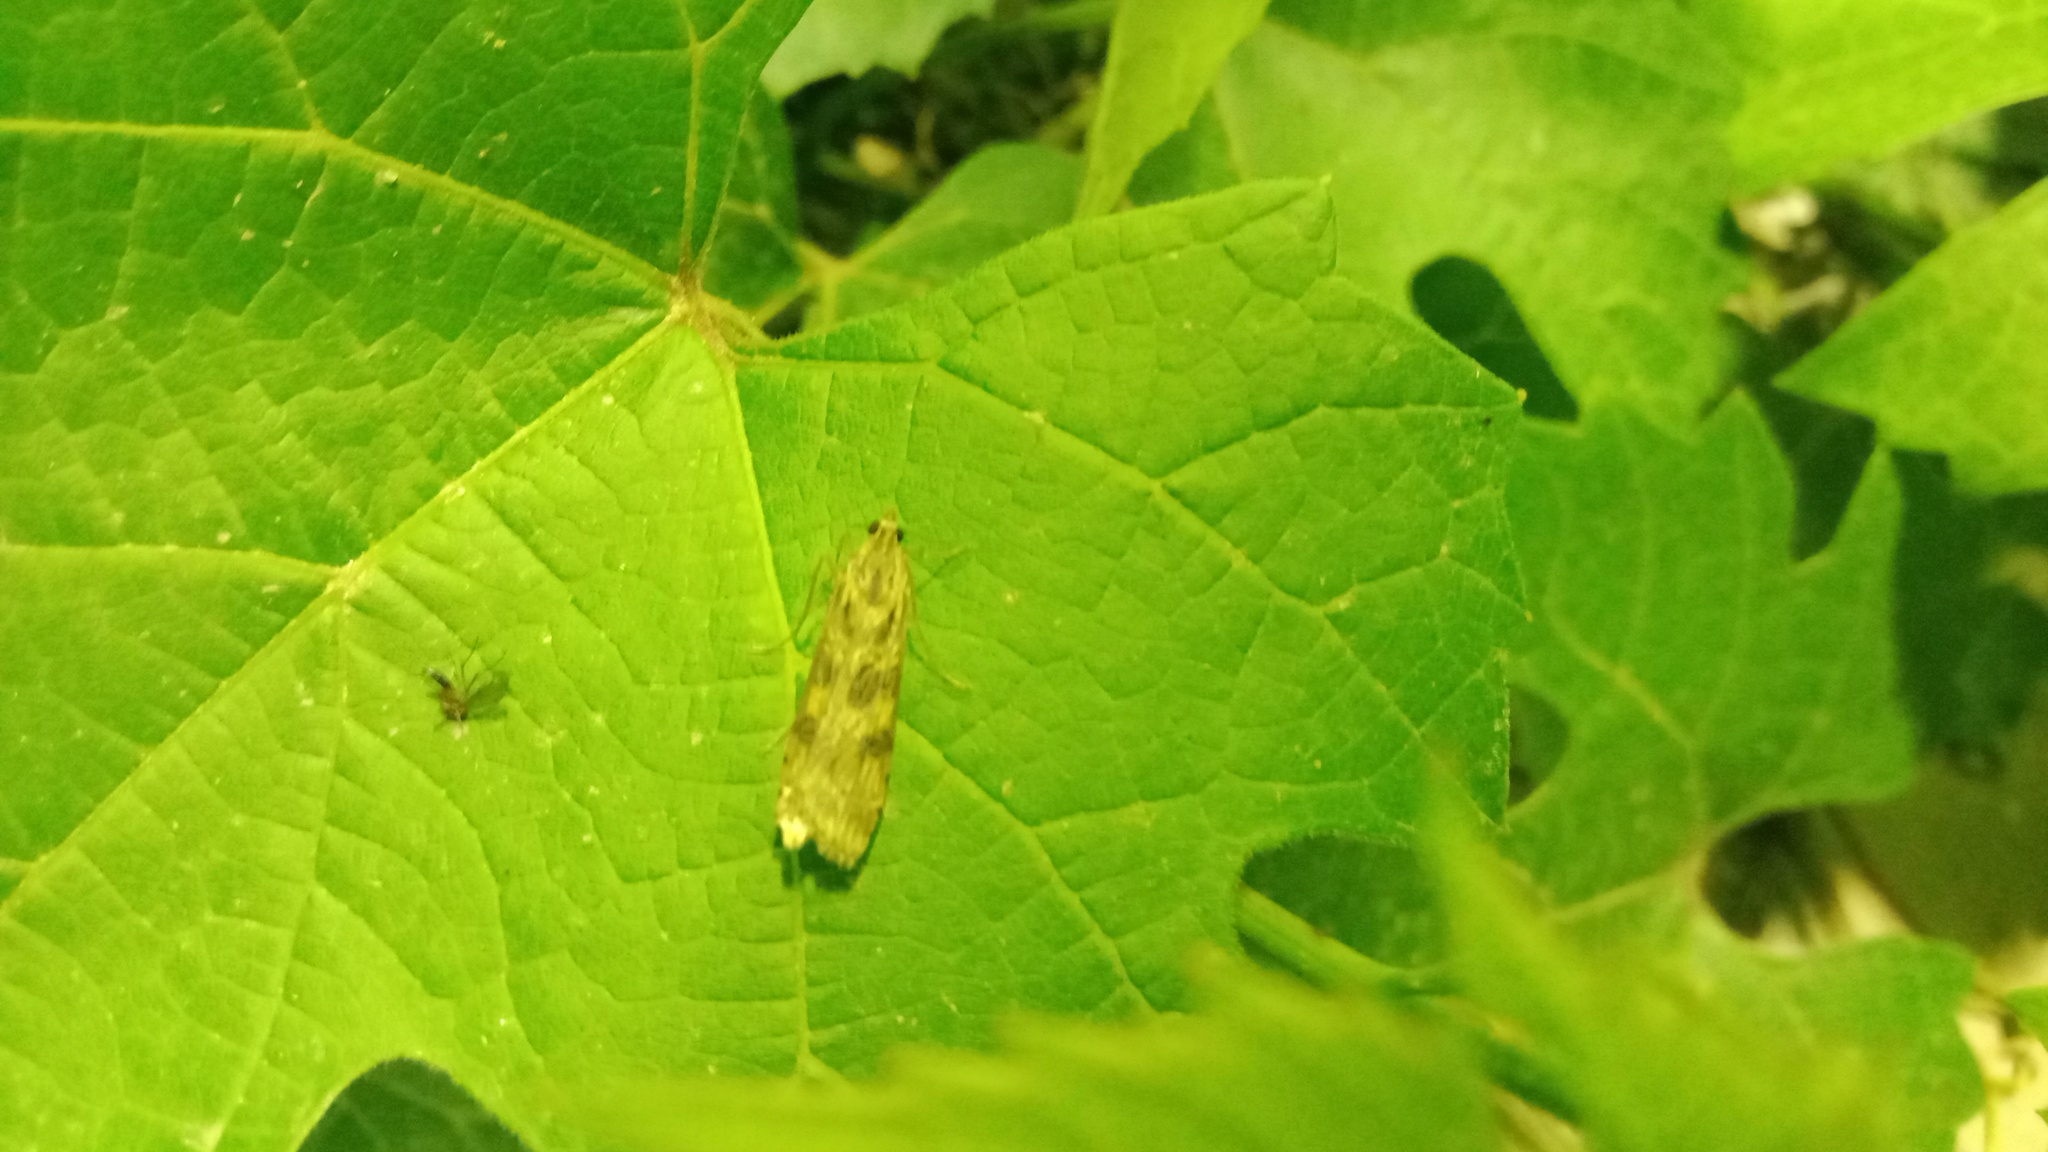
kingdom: Animalia
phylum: Arthropoda
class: Insecta
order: Lepidoptera
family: Crambidae
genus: Nomophila
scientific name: Nomophila noctuella
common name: Rush veneer
